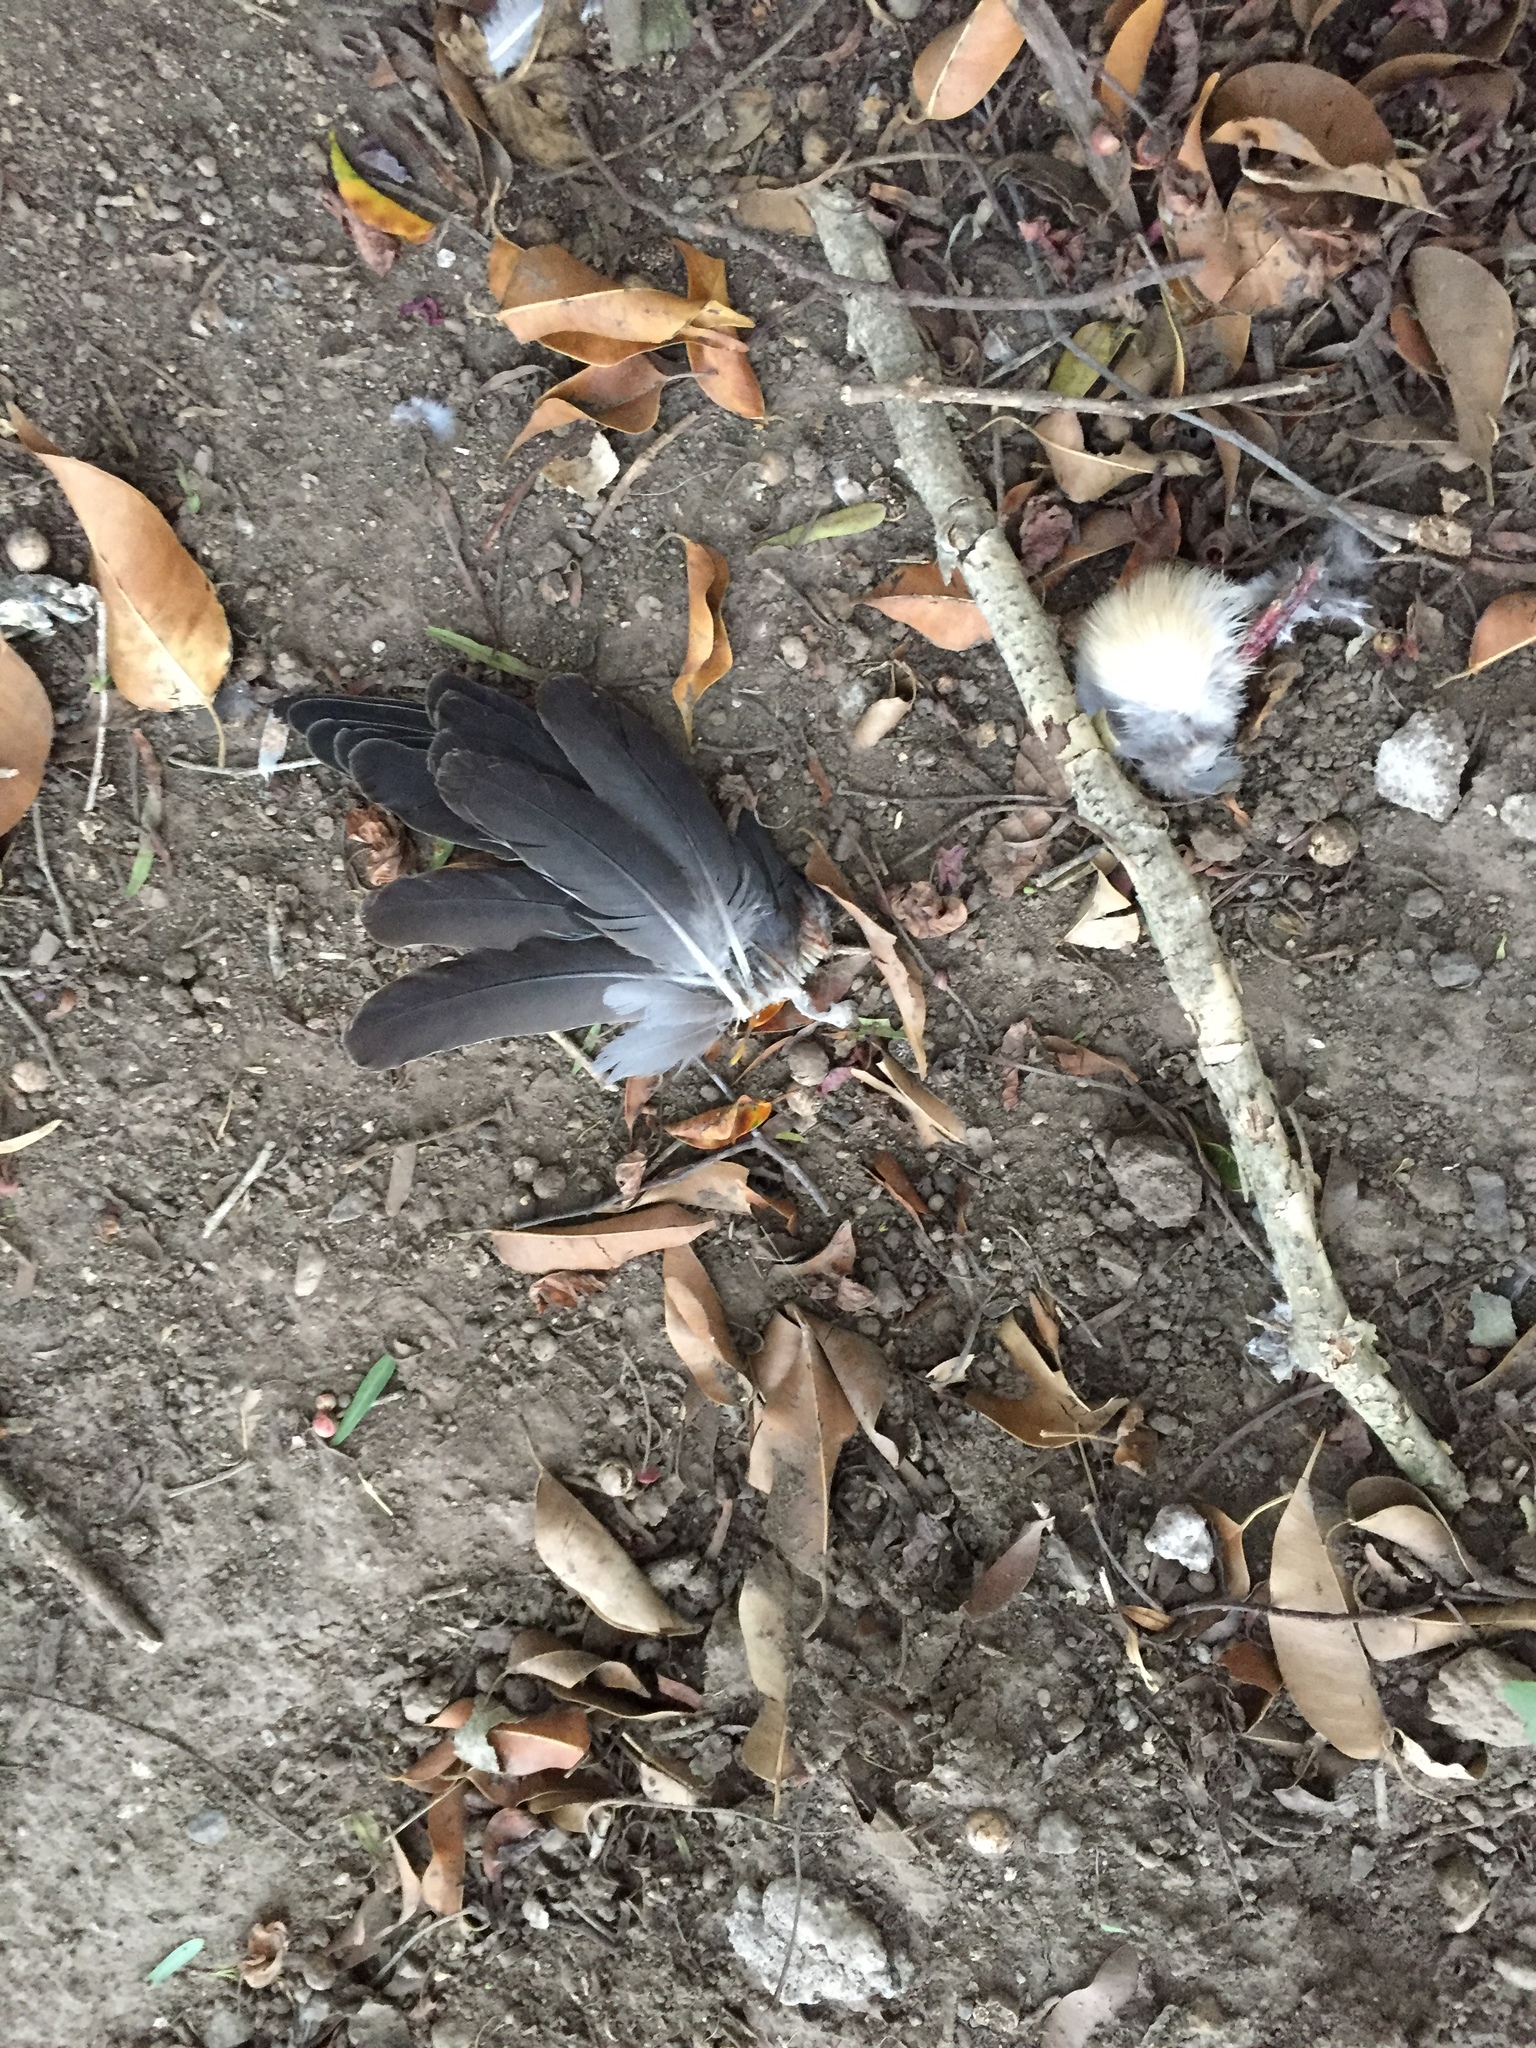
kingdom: Animalia
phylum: Chordata
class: Aves
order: Columbiformes
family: Columbidae
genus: Zenaida
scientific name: Zenaida auriculata
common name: Eared dove
